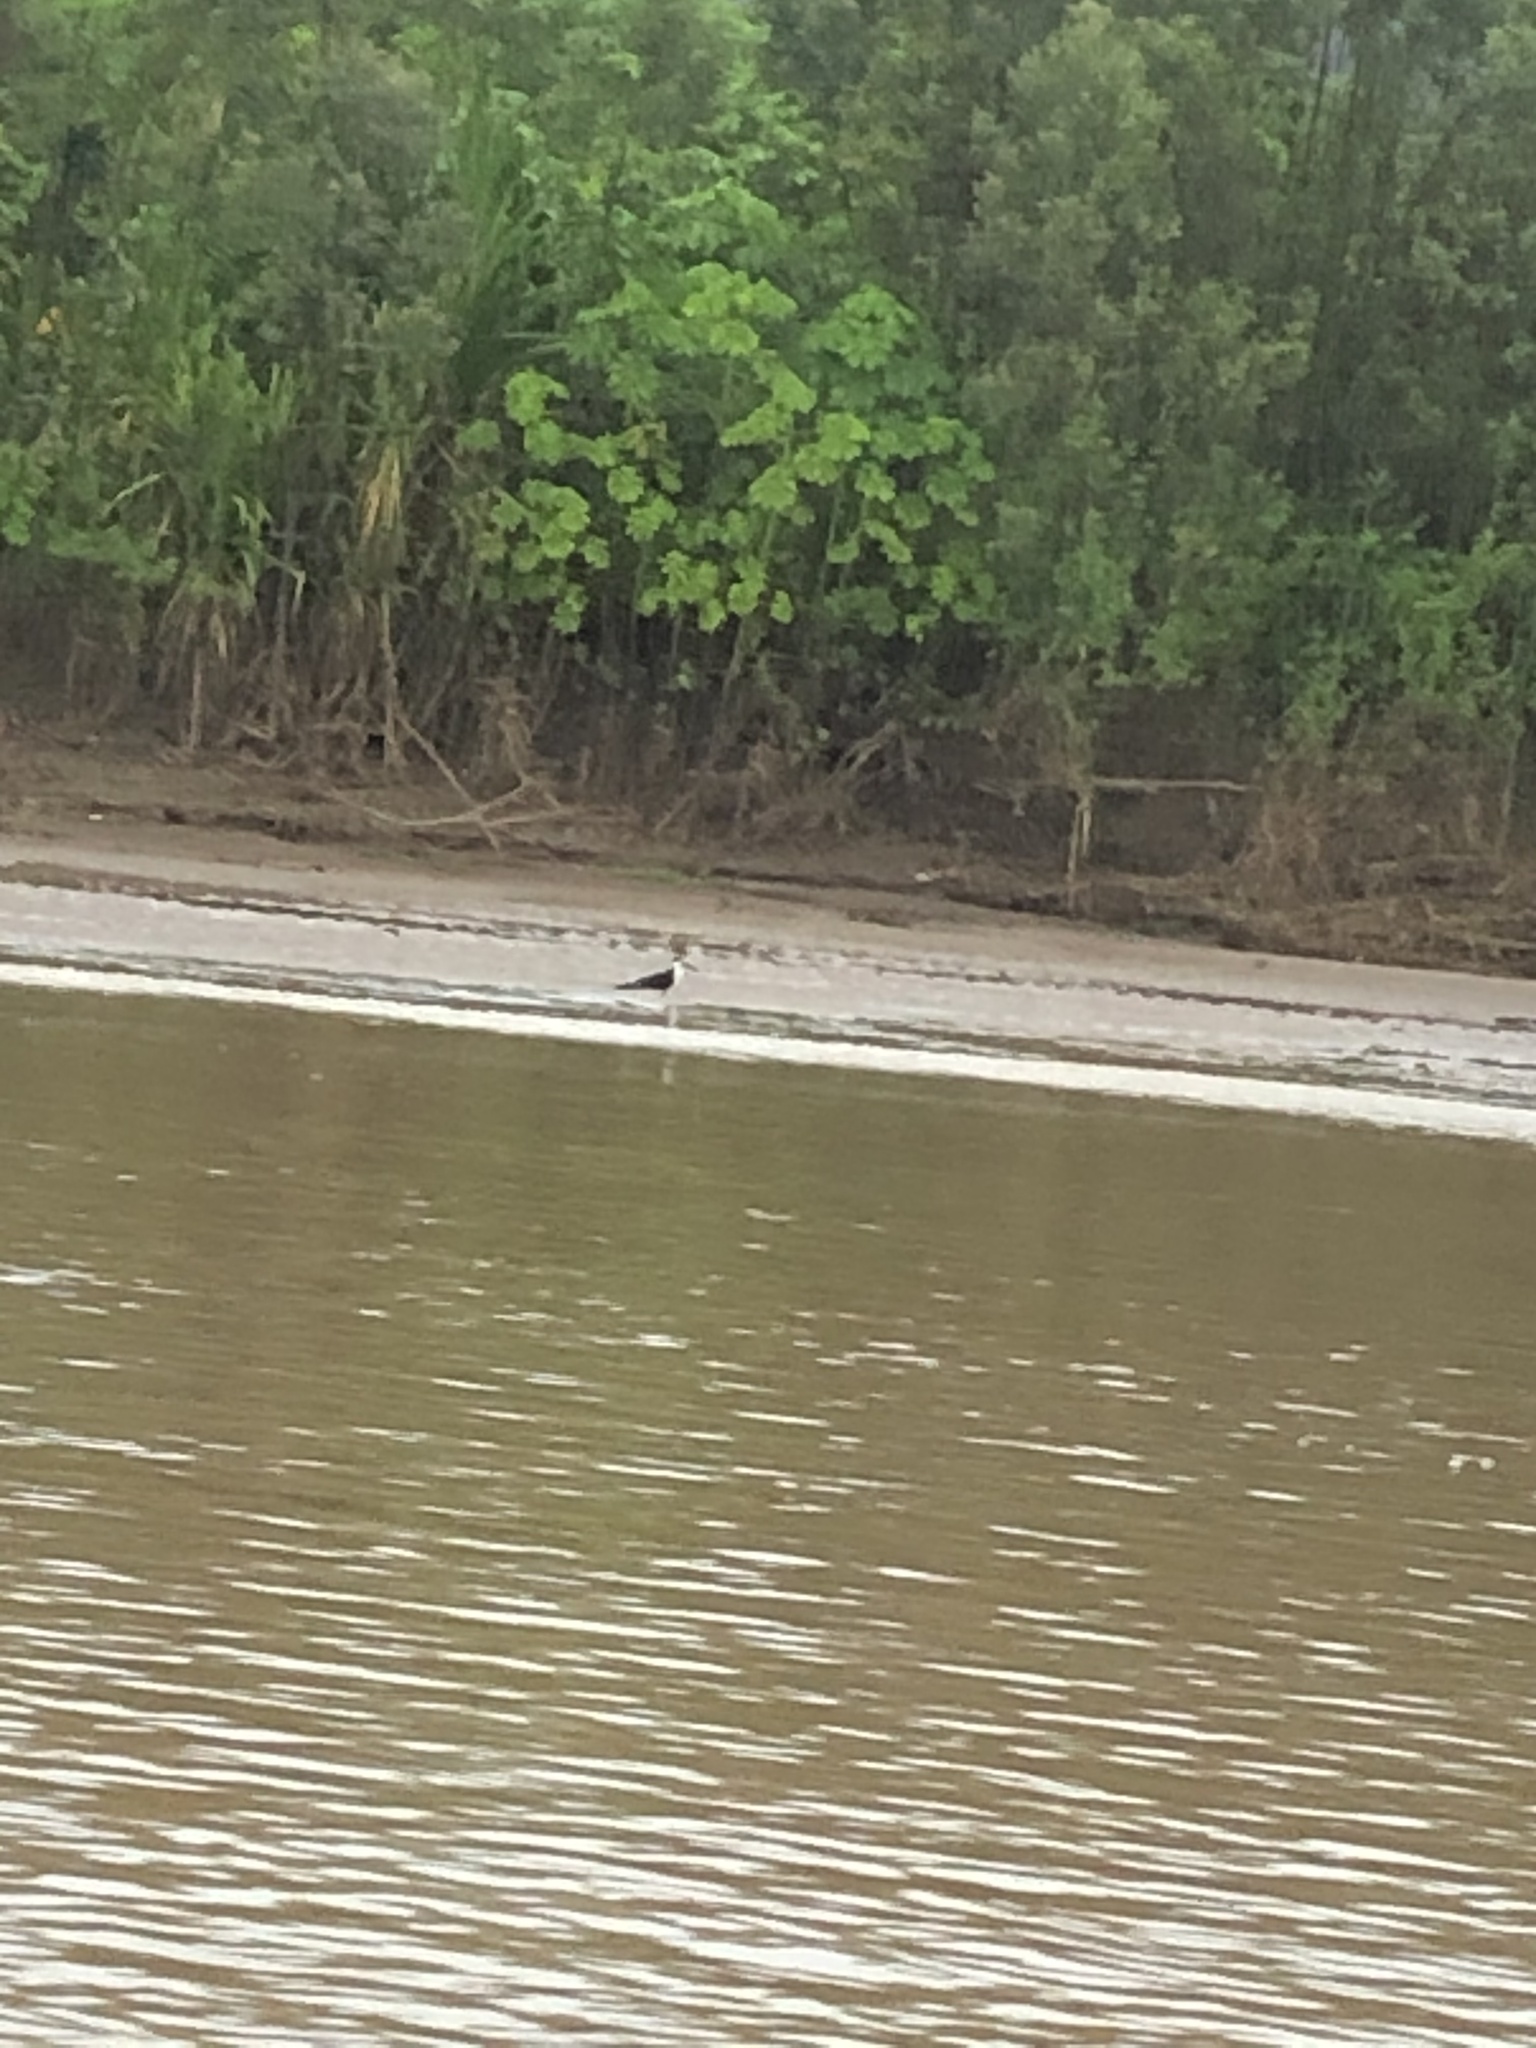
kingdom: Animalia
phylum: Chordata
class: Aves
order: Charadriiformes
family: Laridae
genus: Rynchops
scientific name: Rynchops niger
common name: Black skimmer
